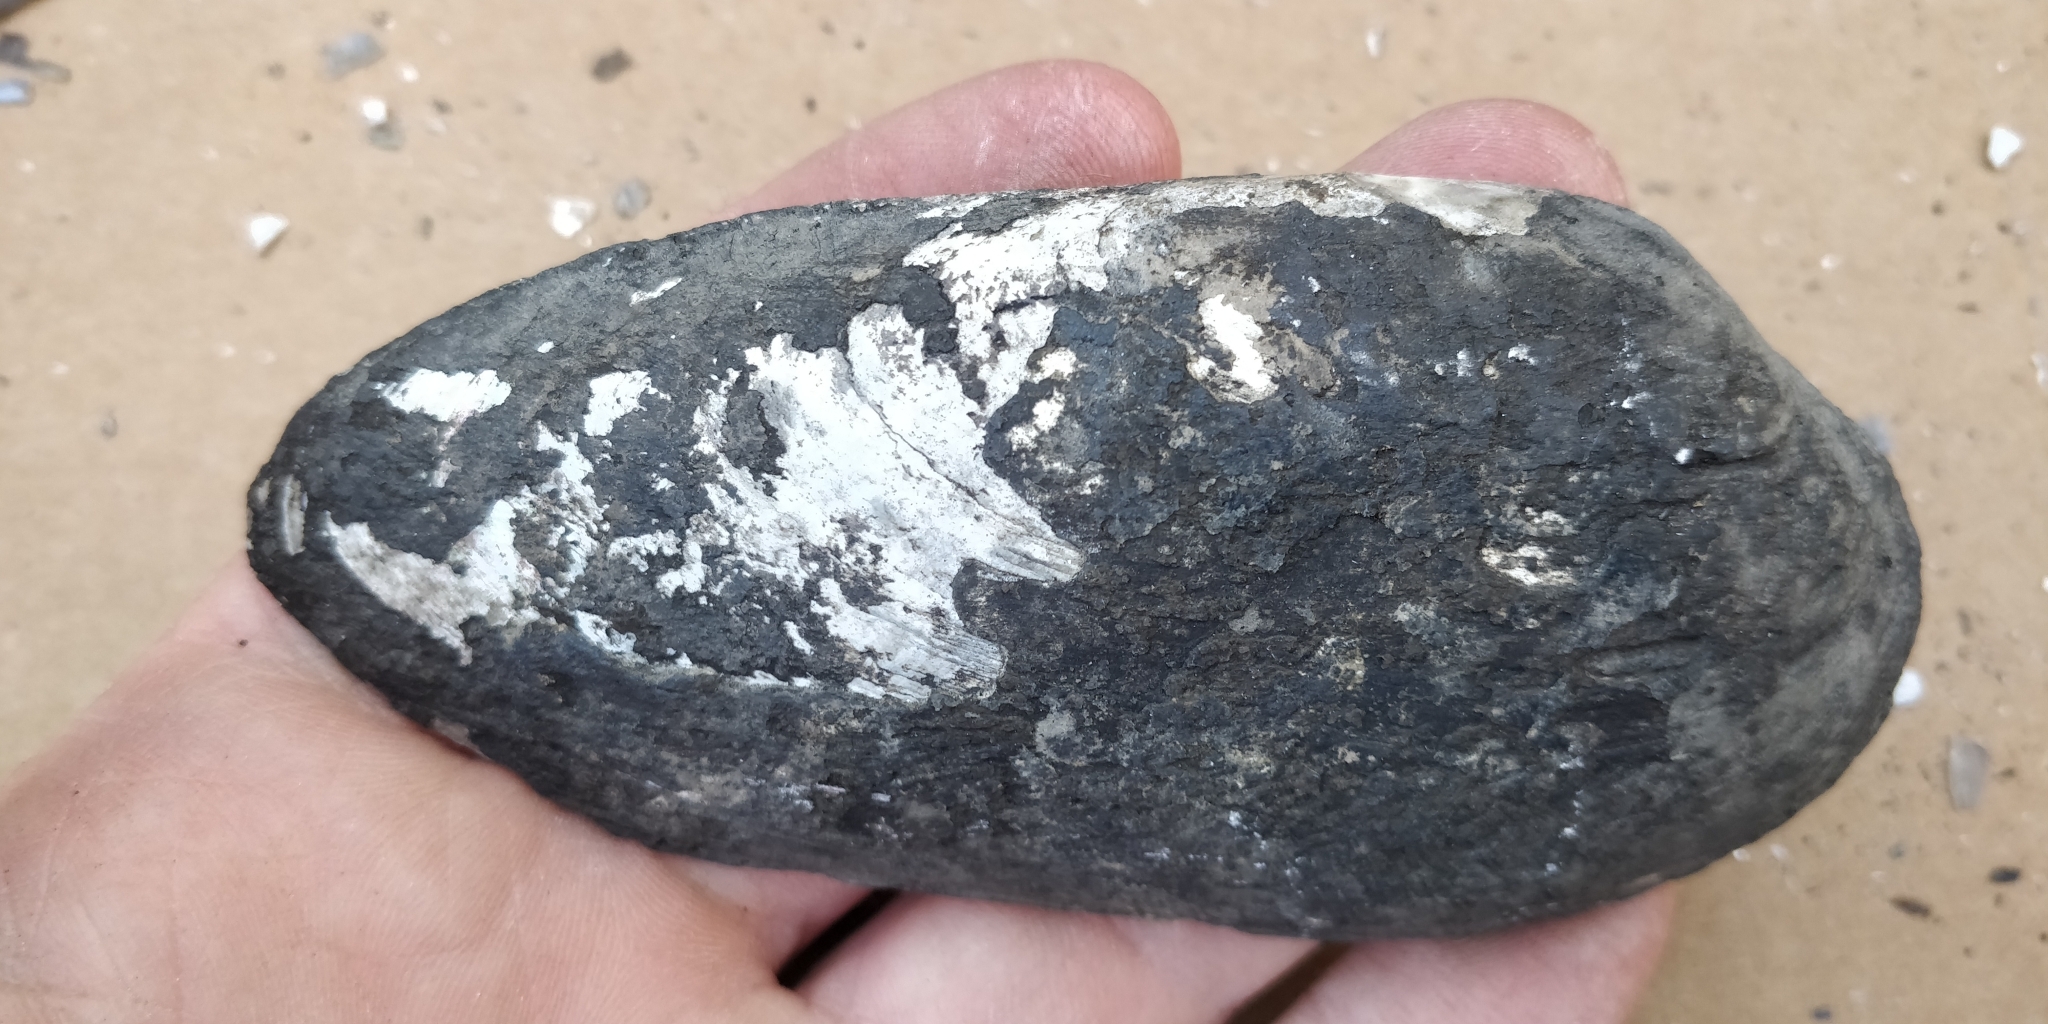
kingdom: Animalia
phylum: Mollusca
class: Bivalvia
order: Unionida
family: Unionidae
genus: Ligumia
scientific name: Ligumia recta
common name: Black sandshell
